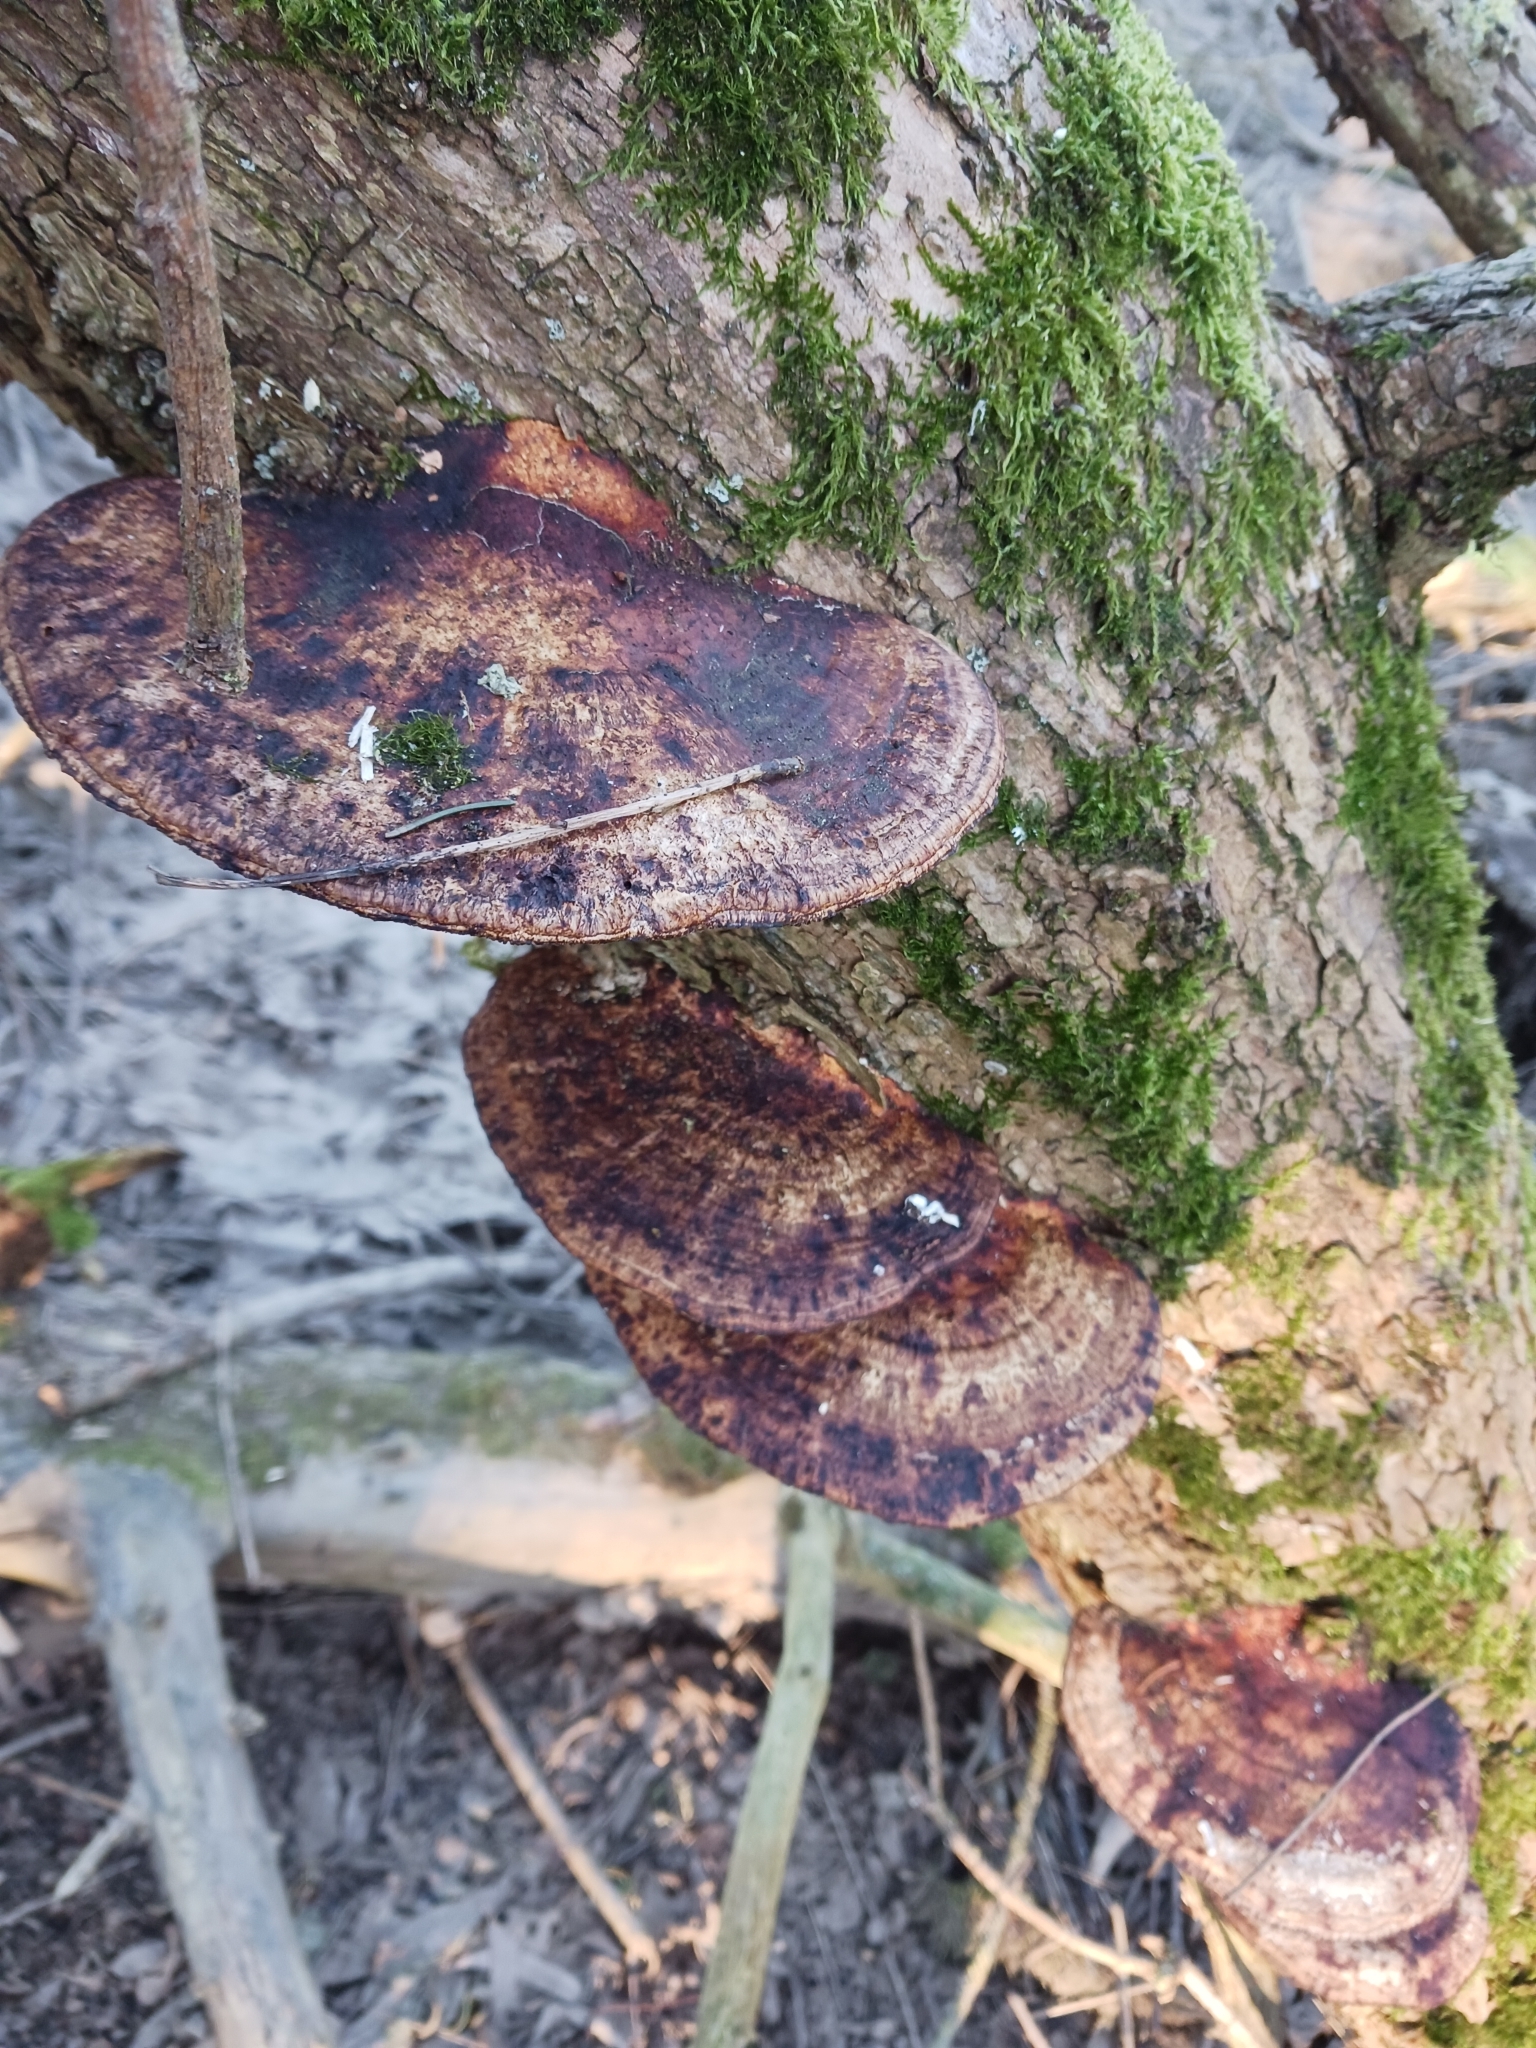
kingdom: Fungi
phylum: Basidiomycota
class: Agaricomycetes
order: Polyporales
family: Polyporaceae
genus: Daedaleopsis
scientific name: Daedaleopsis confragosa
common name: Blushing bracket
